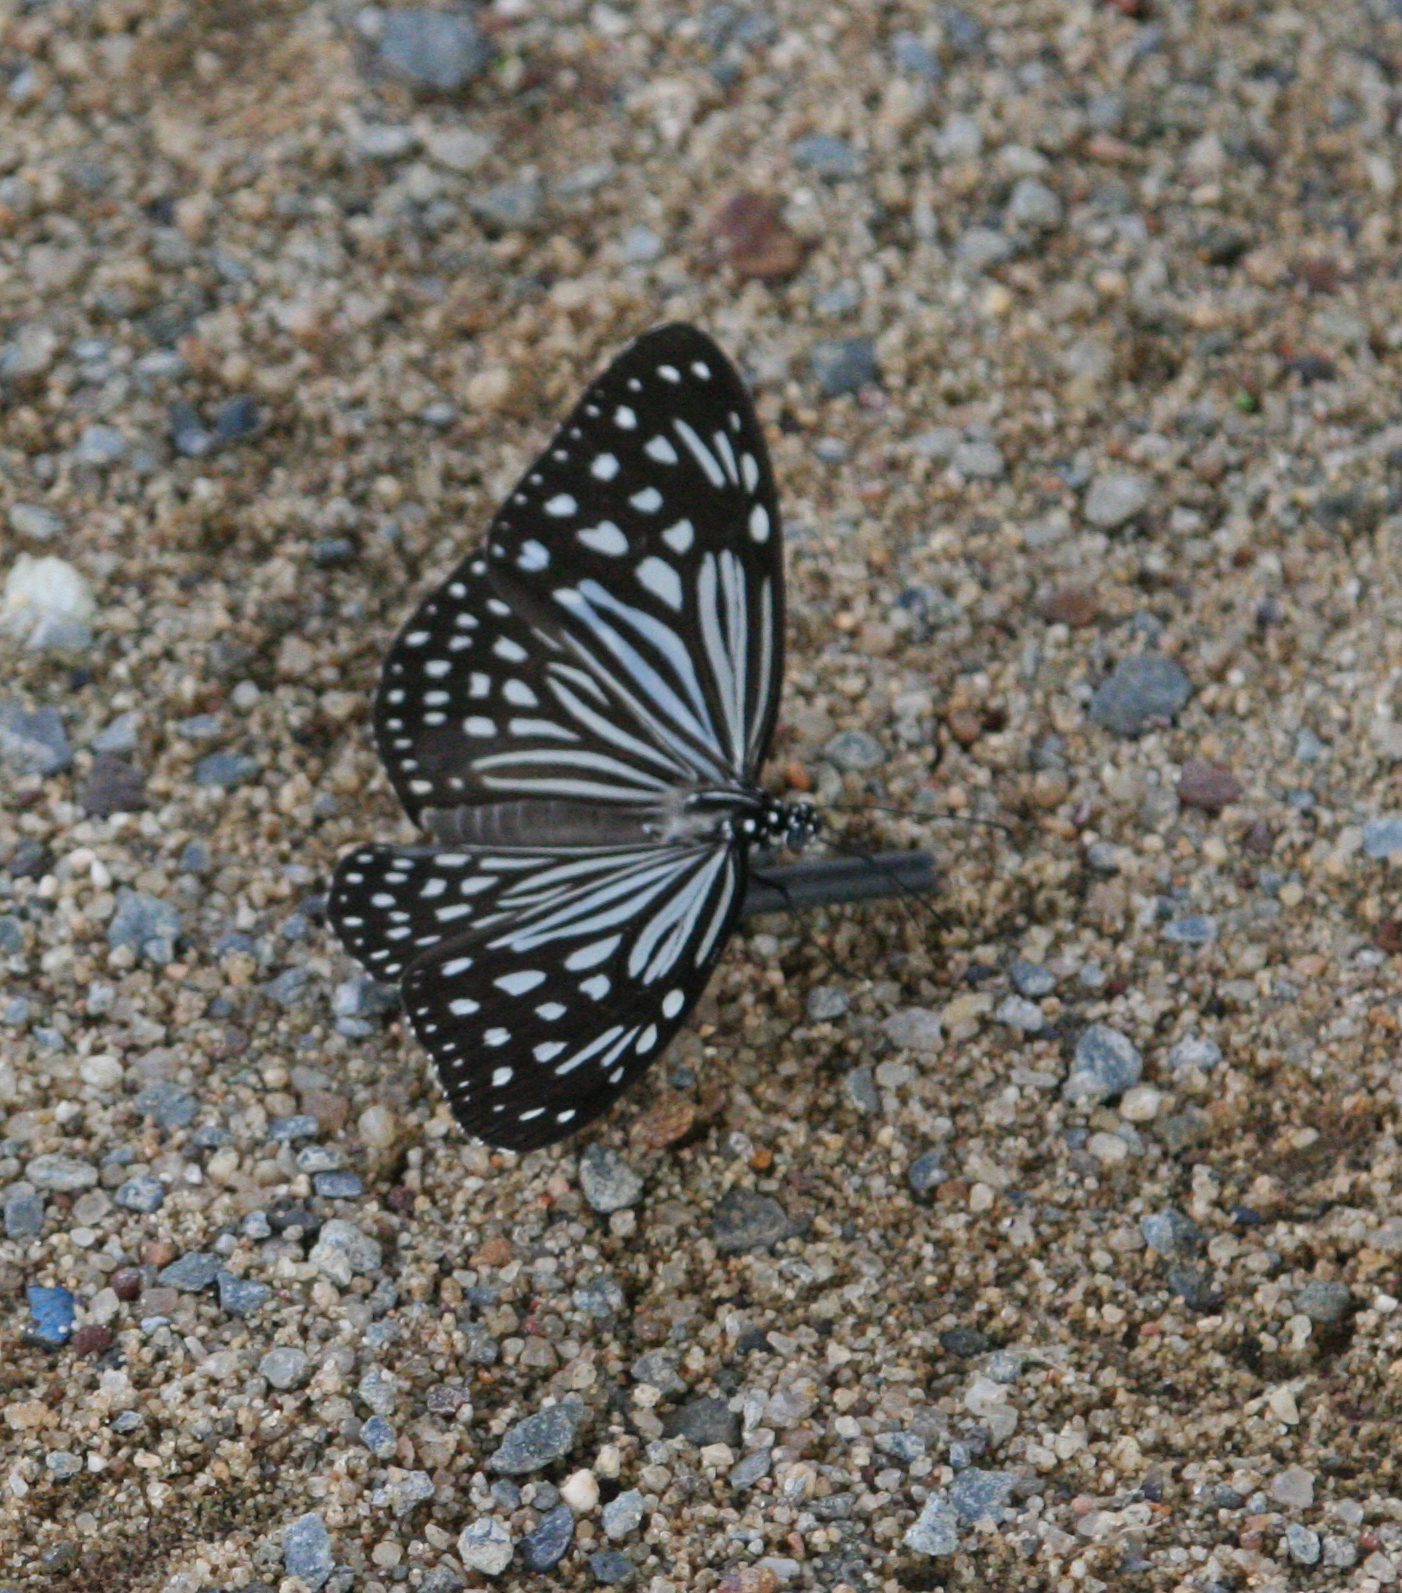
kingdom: Animalia
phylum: Arthropoda
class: Insecta
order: Lepidoptera
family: Nymphalidae
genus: Parantica
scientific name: Parantica agleoides
